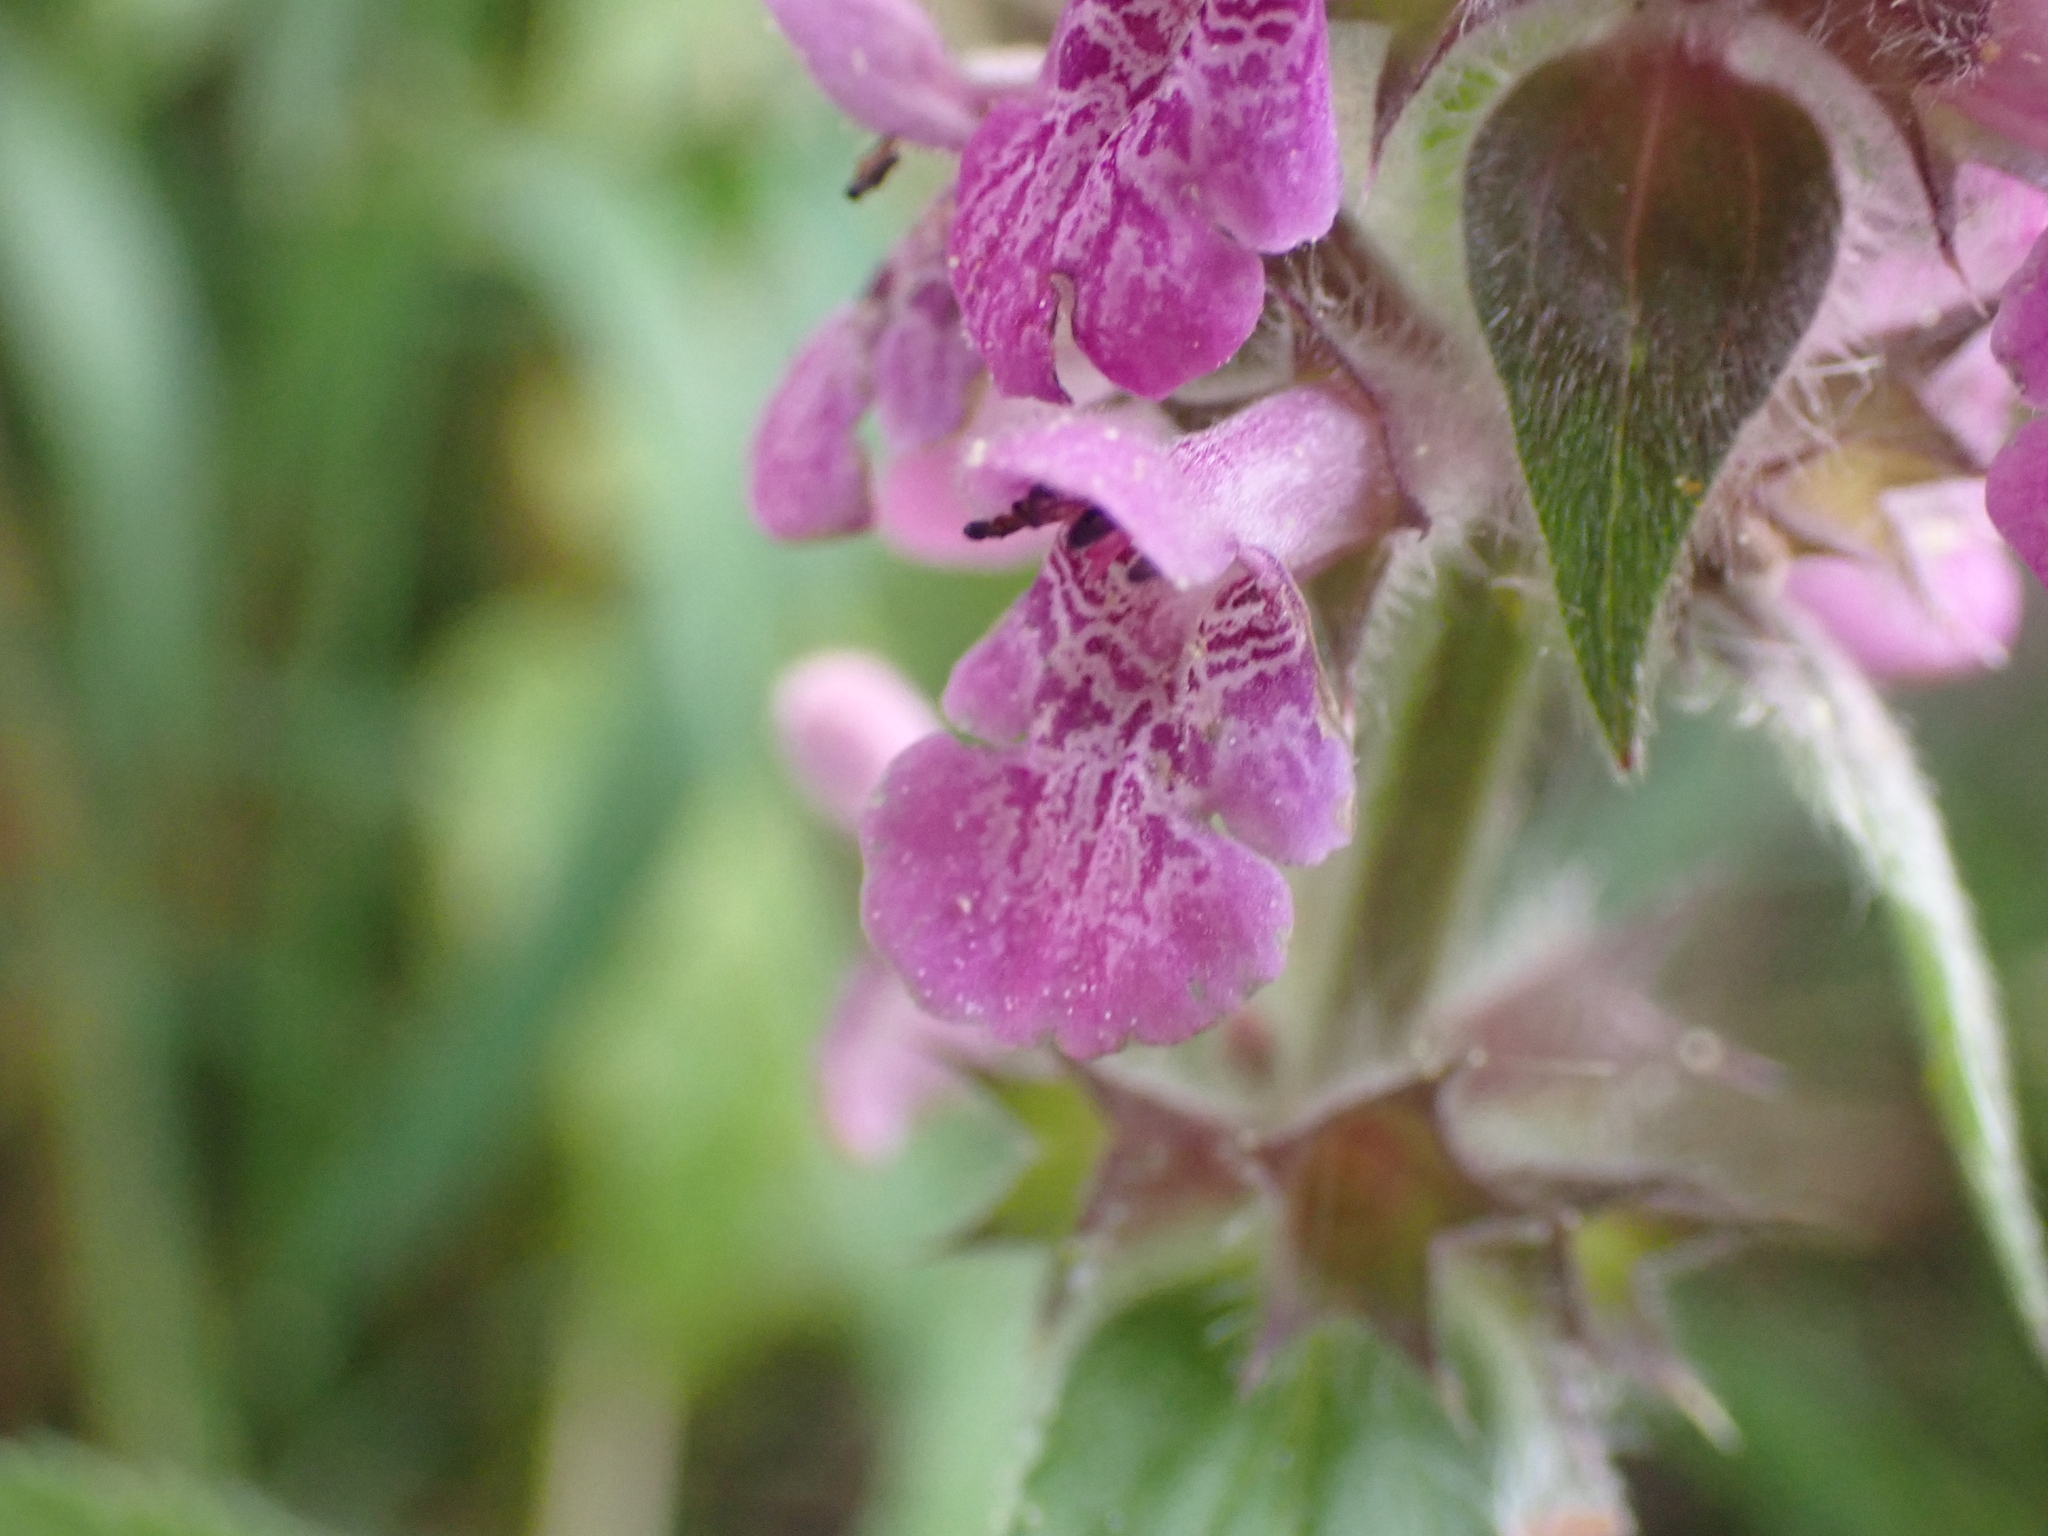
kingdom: Plantae
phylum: Tracheophyta
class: Magnoliopsida
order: Lamiales
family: Lamiaceae
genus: Stachys
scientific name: Stachys palustris
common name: Marsh woundwort
